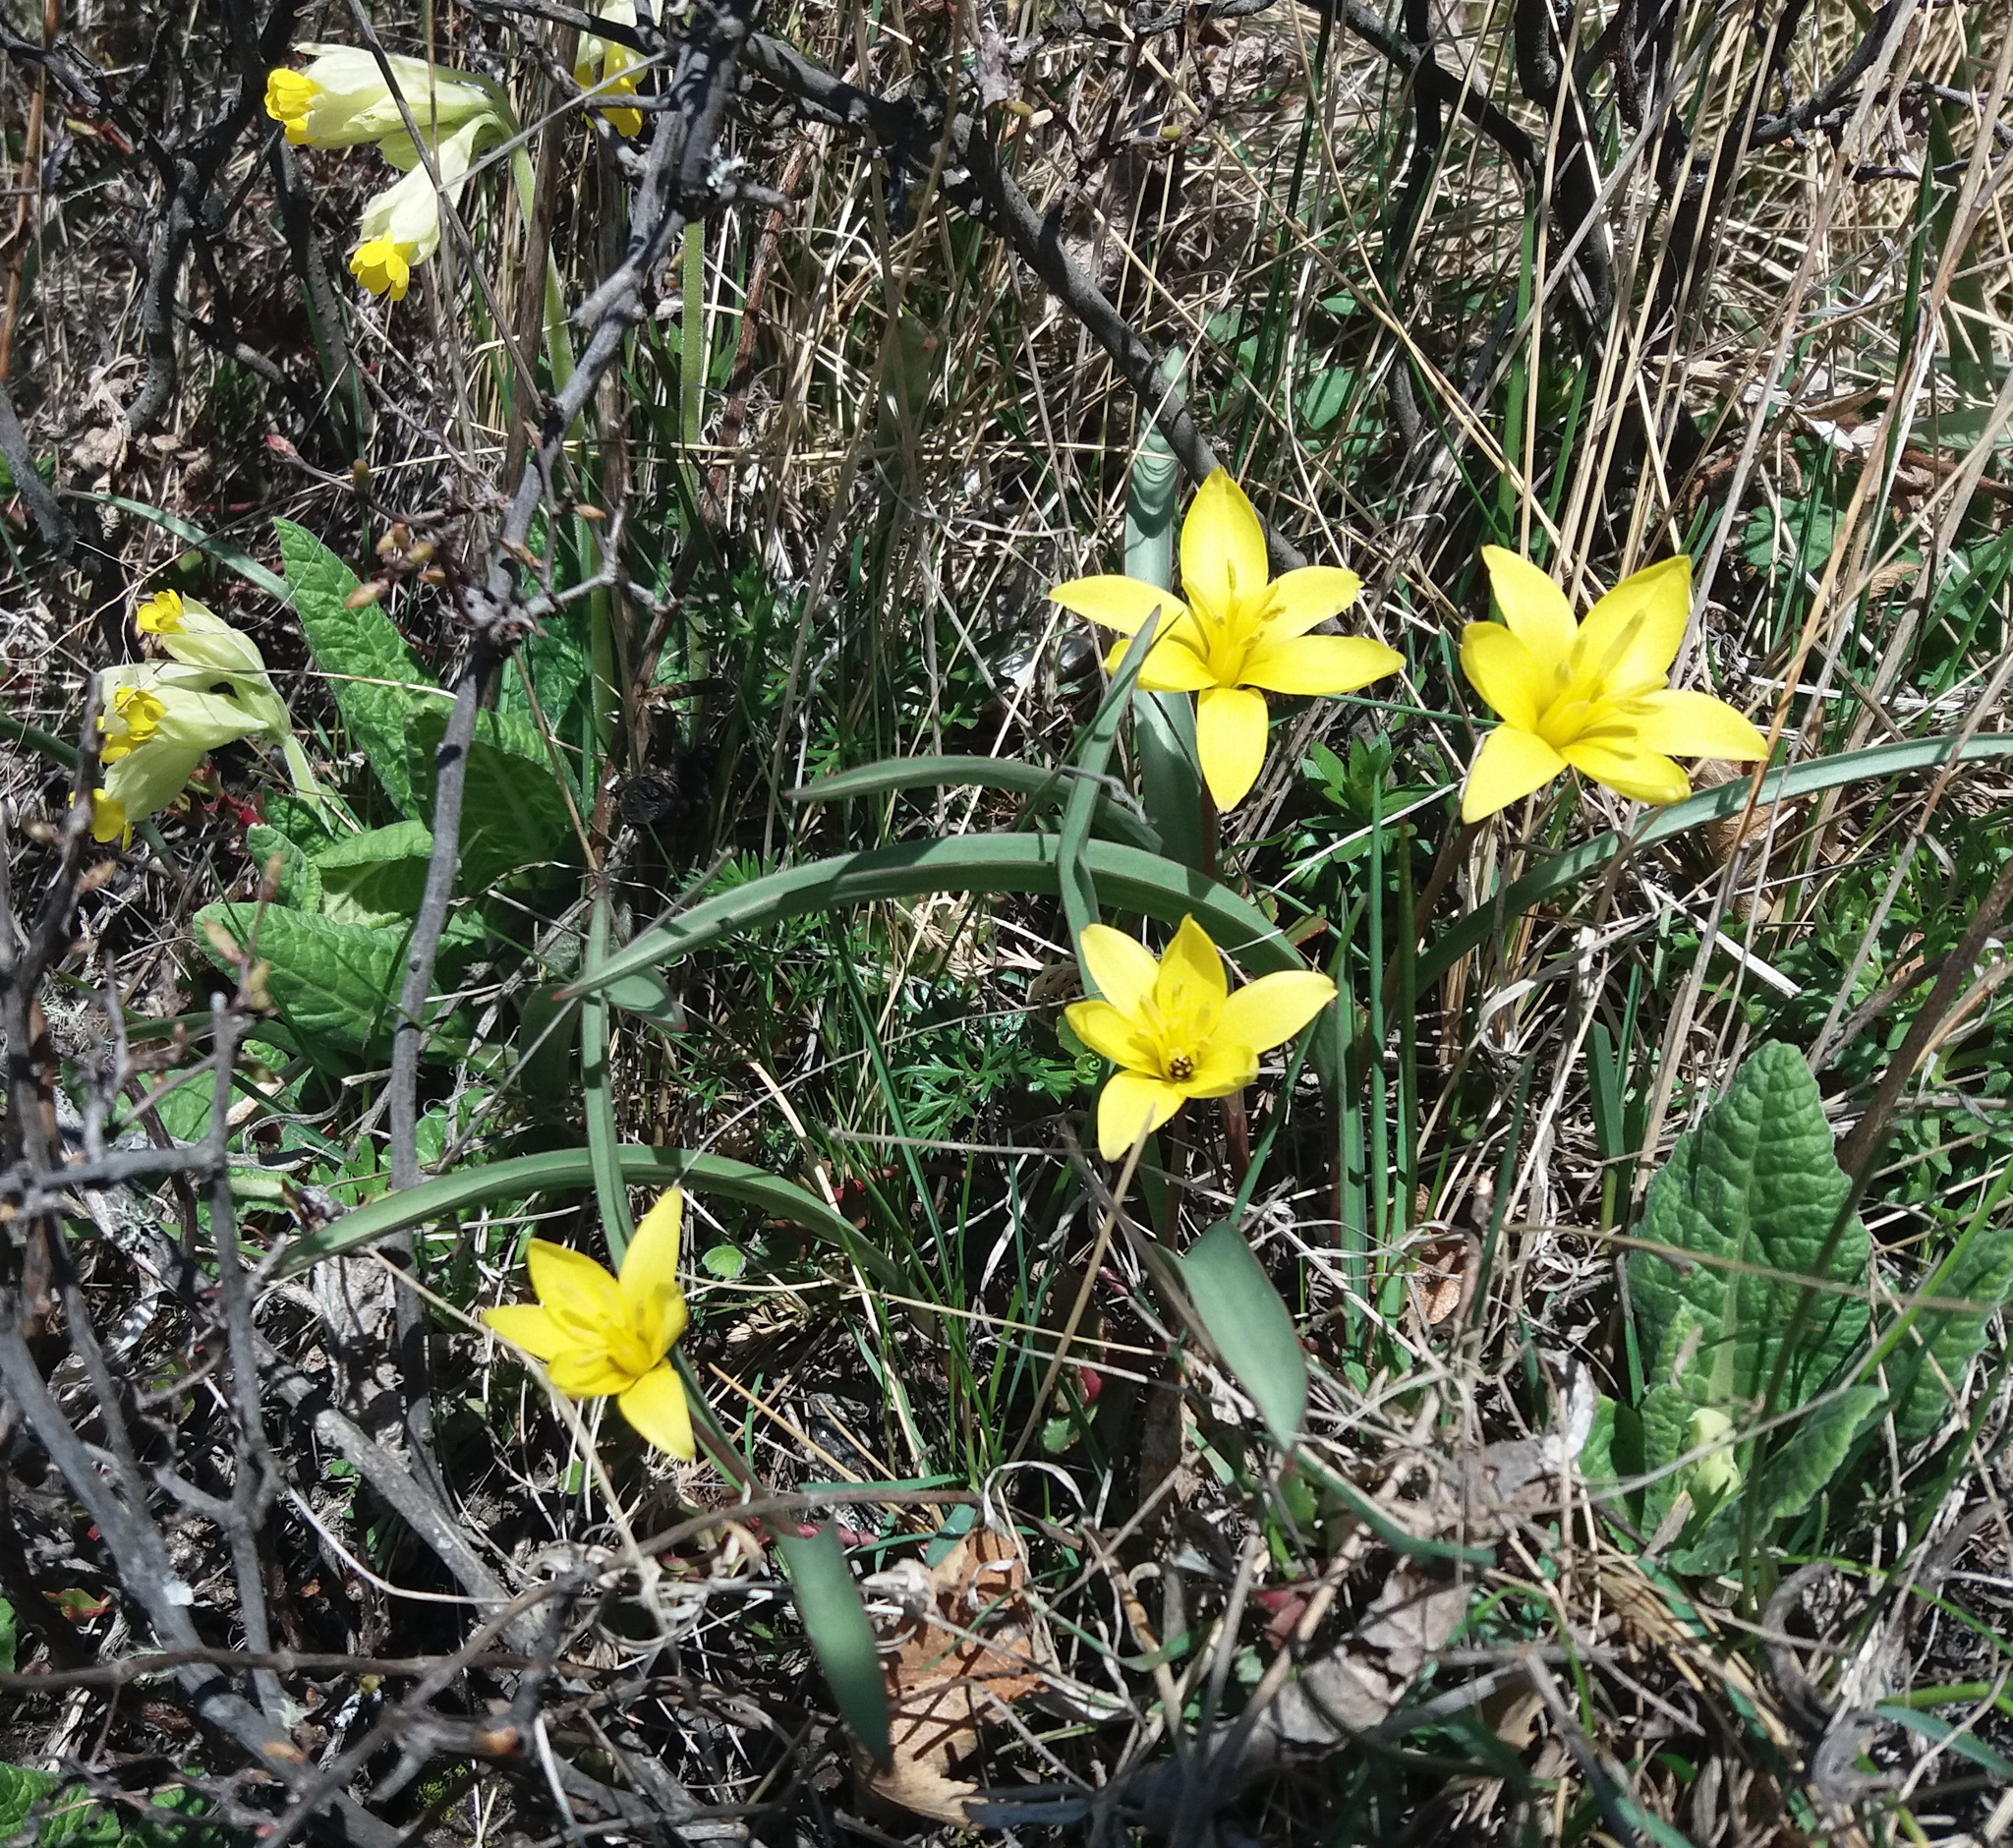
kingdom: Plantae
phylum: Tracheophyta
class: Liliopsida
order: Liliales
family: Liliaceae
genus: Tulipa
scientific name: Tulipa uniflora
